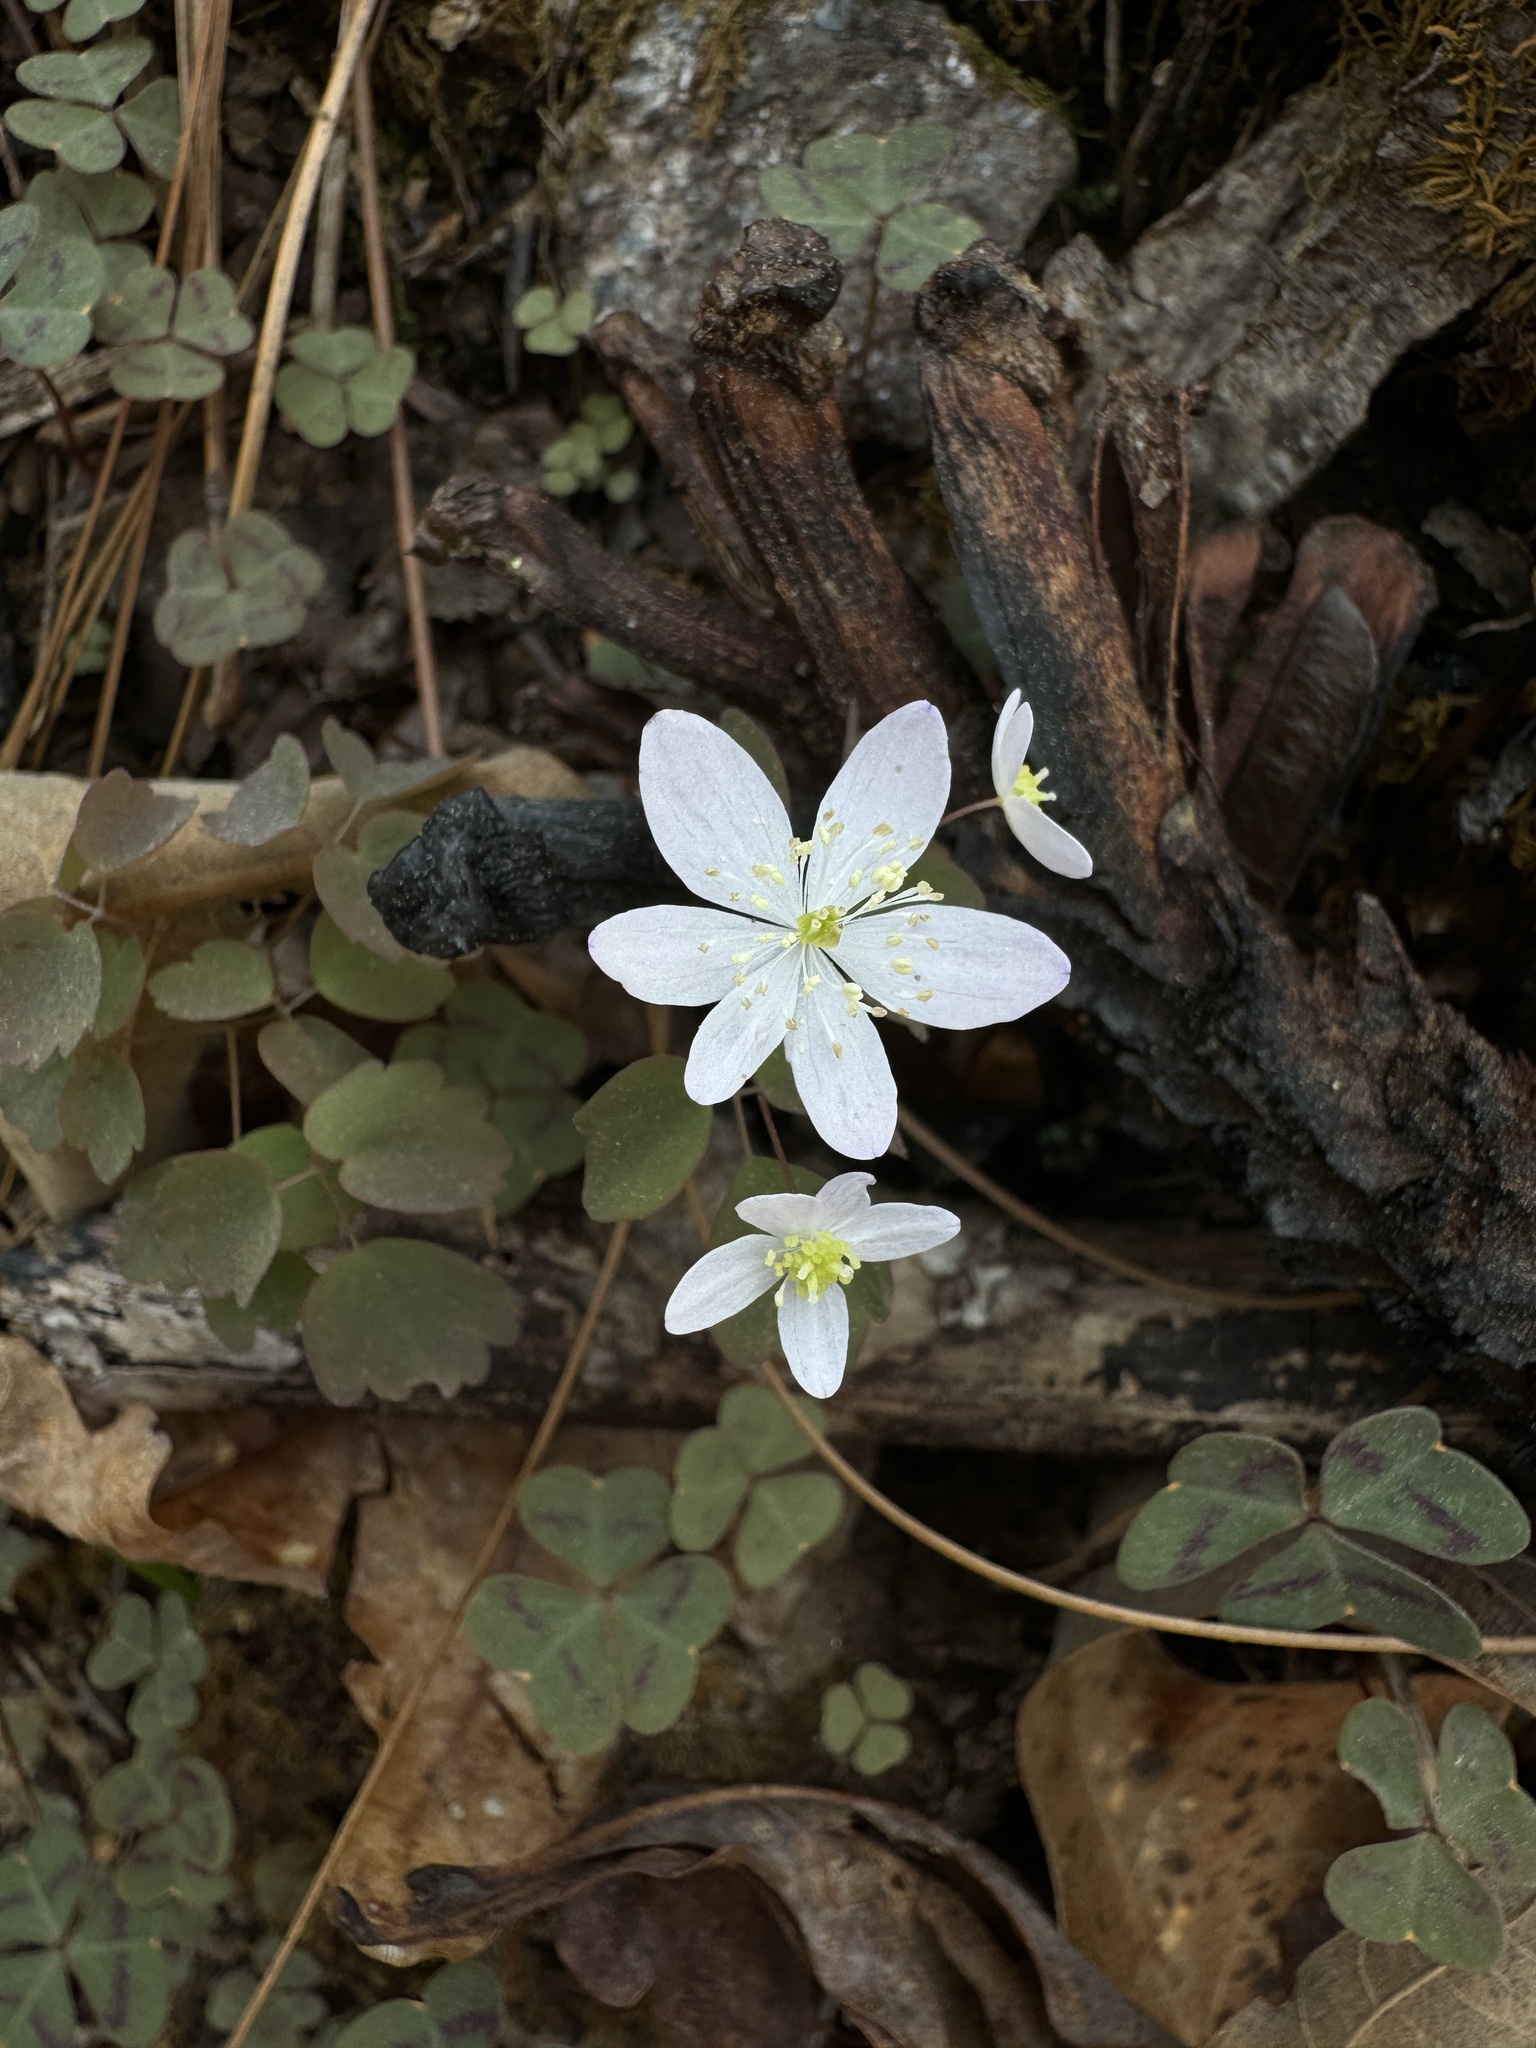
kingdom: Plantae
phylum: Tracheophyta
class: Magnoliopsida
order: Ranunculales
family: Ranunculaceae
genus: Thalictrum
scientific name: Thalictrum thalictroides
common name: Rue-anemone
